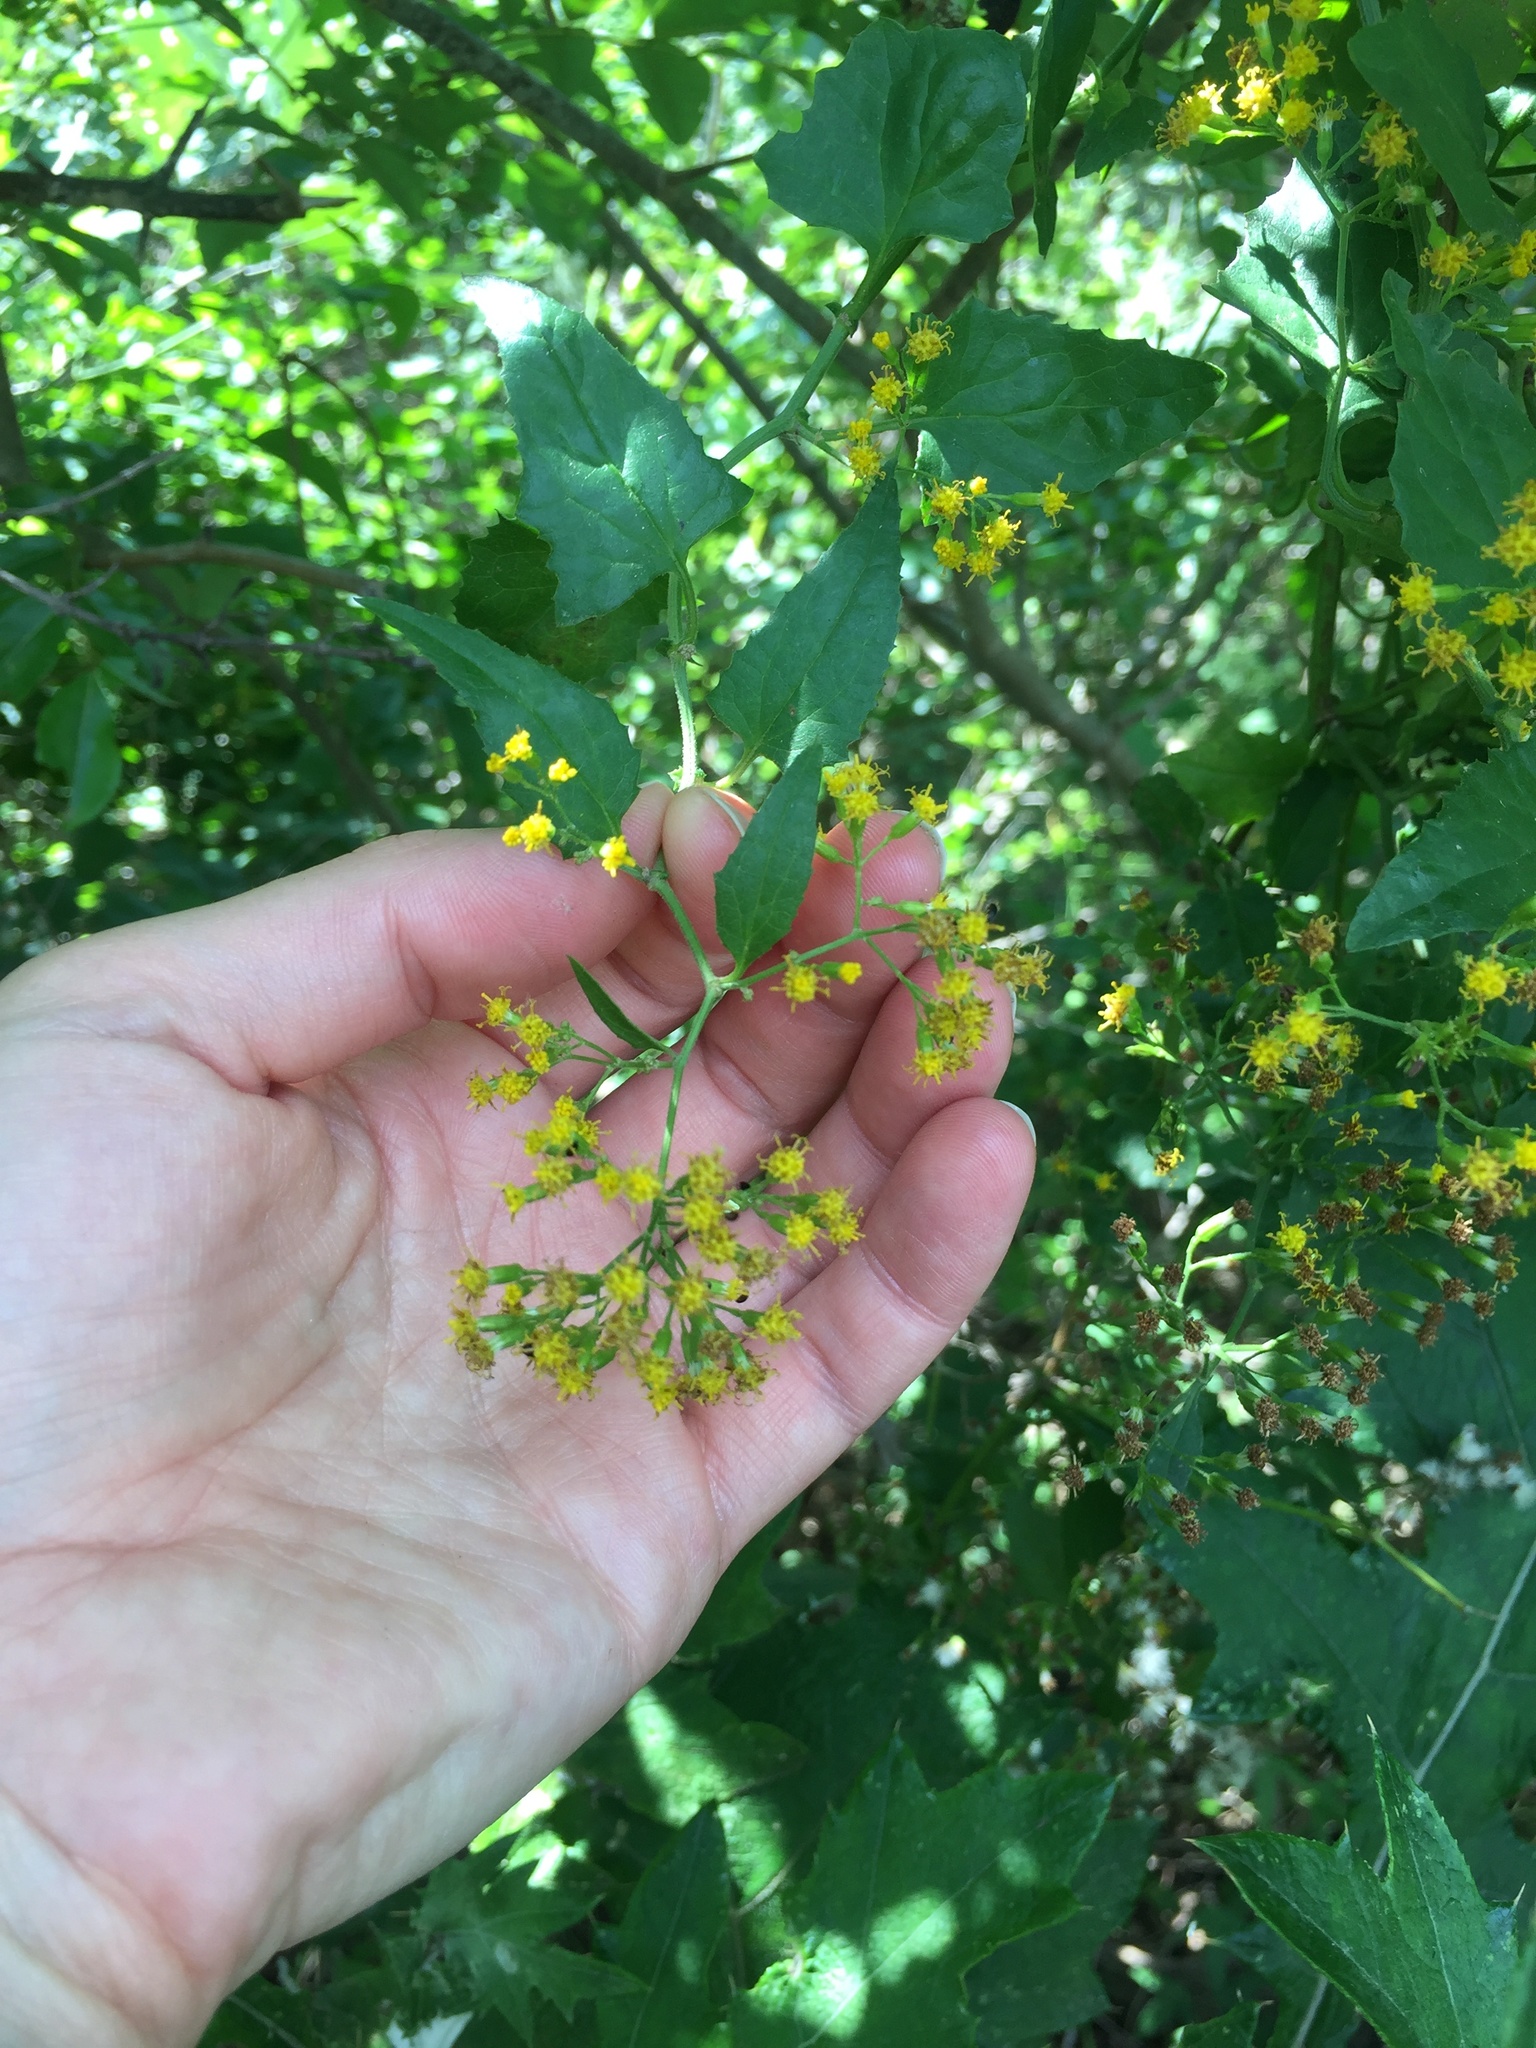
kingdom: Plantae
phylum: Tracheophyta
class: Magnoliopsida
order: Asterales
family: Asteraceae
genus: Senecio
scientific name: Senecio deltoideus
